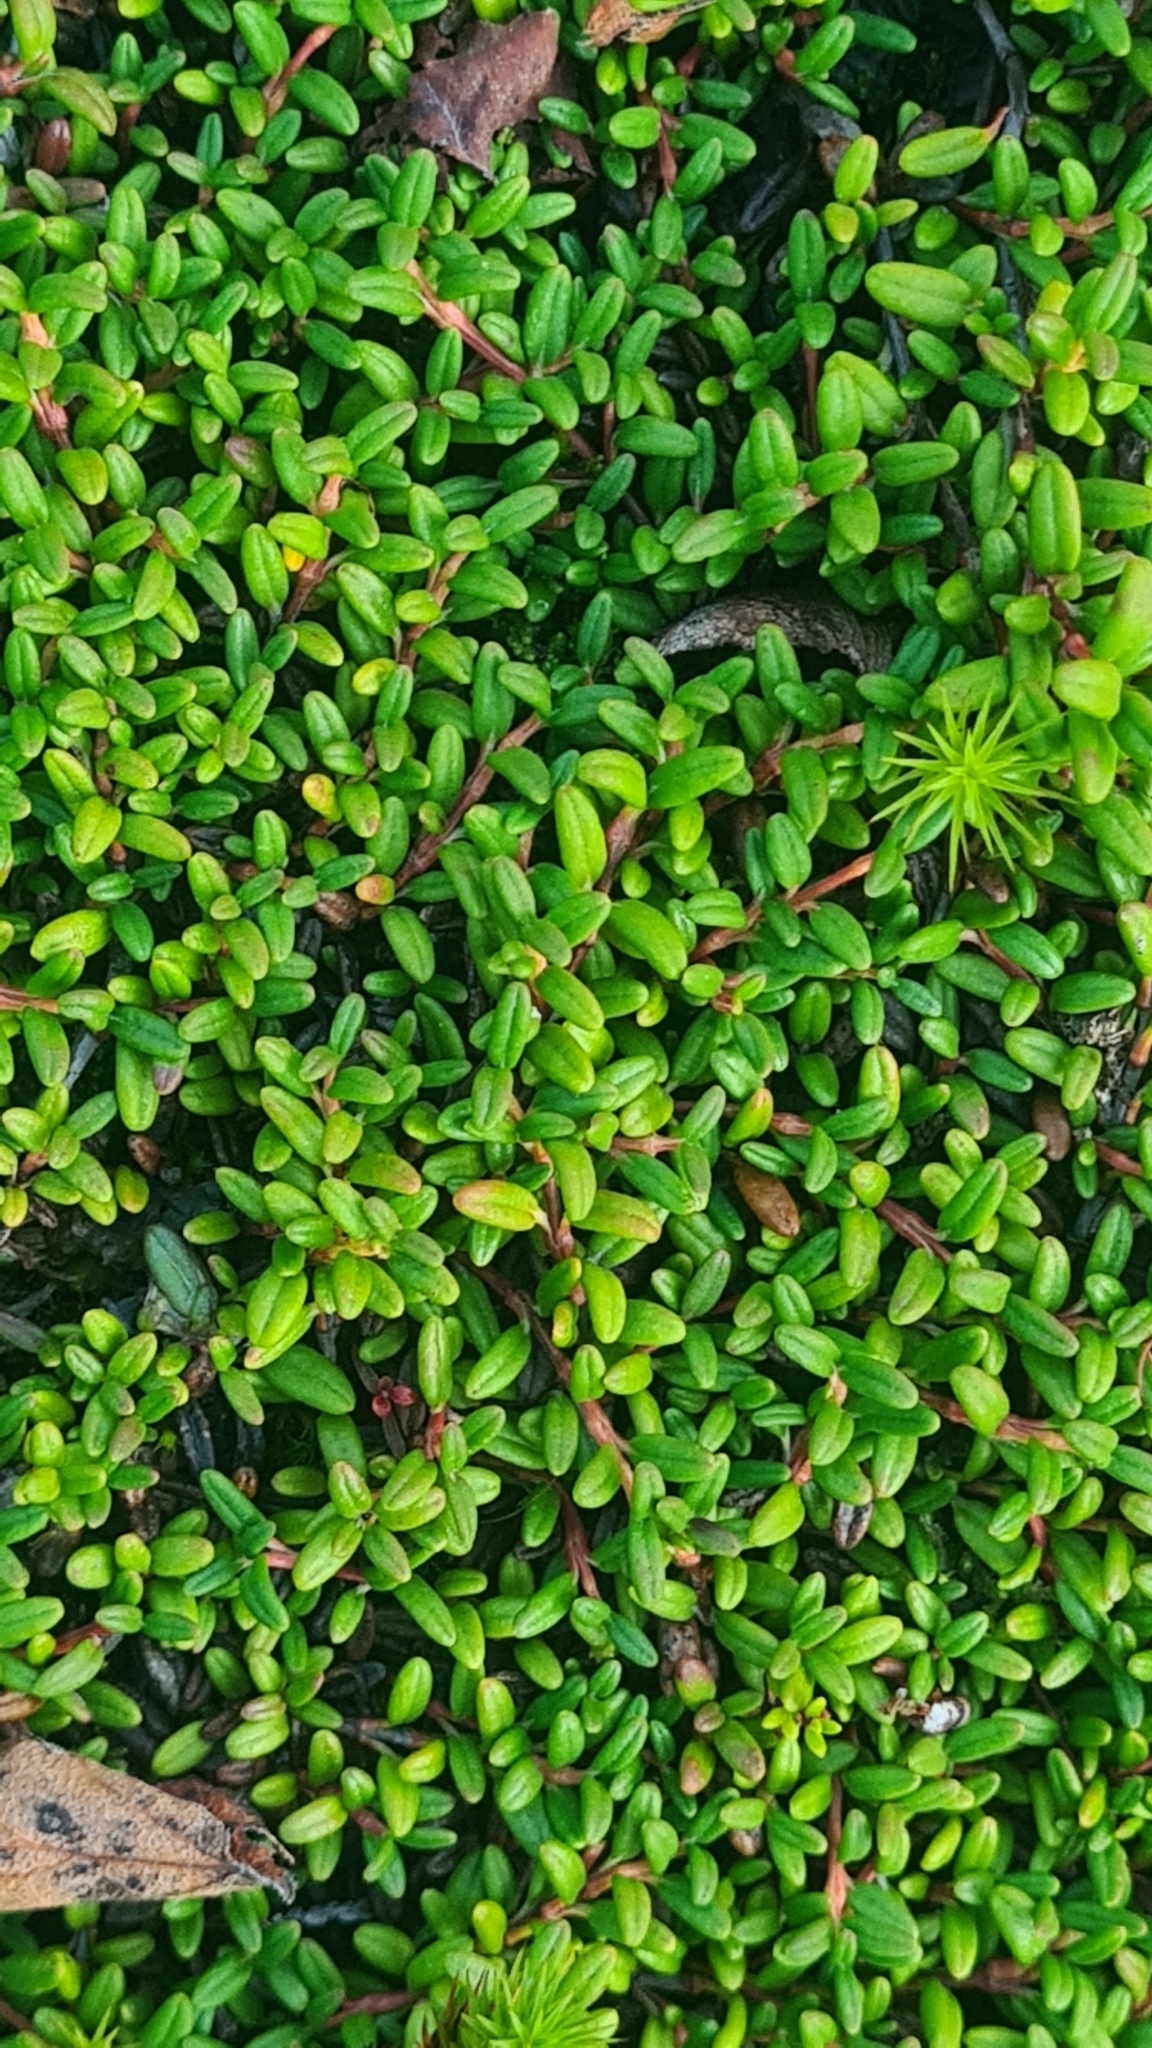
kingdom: Plantae
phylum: Tracheophyta
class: Magnoliopsida
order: Ericales
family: Ericaceae
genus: Kalmia
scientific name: Kalmia procumbens
